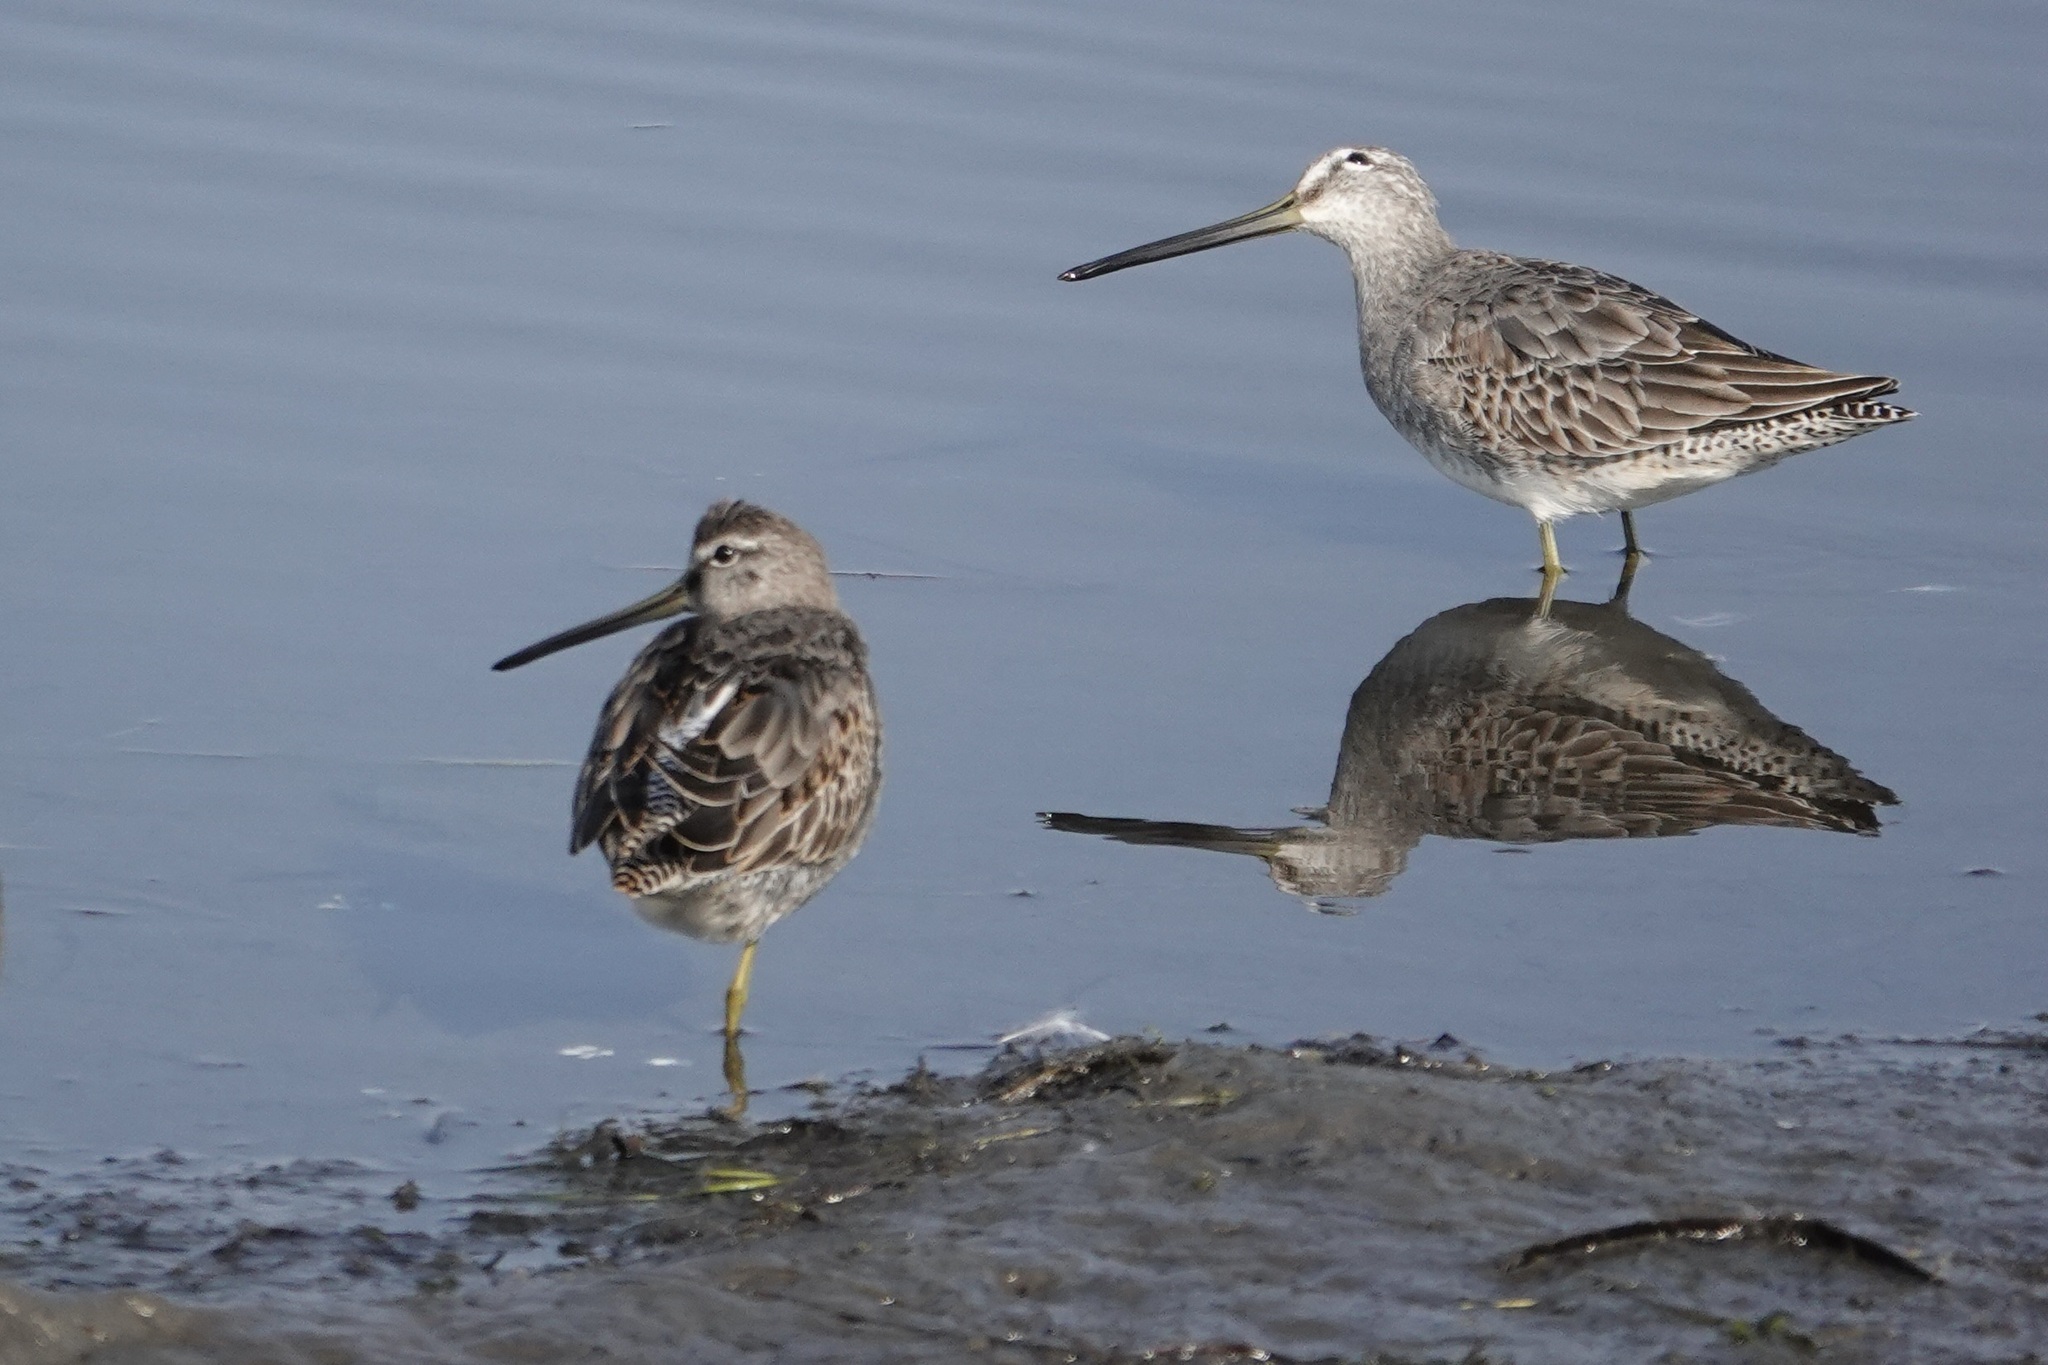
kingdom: Animalia
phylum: Chordata
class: Aves
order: Charadriiformes
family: Scolopacidae
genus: Limnodromus
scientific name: Limnodromus scolopaceus
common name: Long-billed dowitcher
